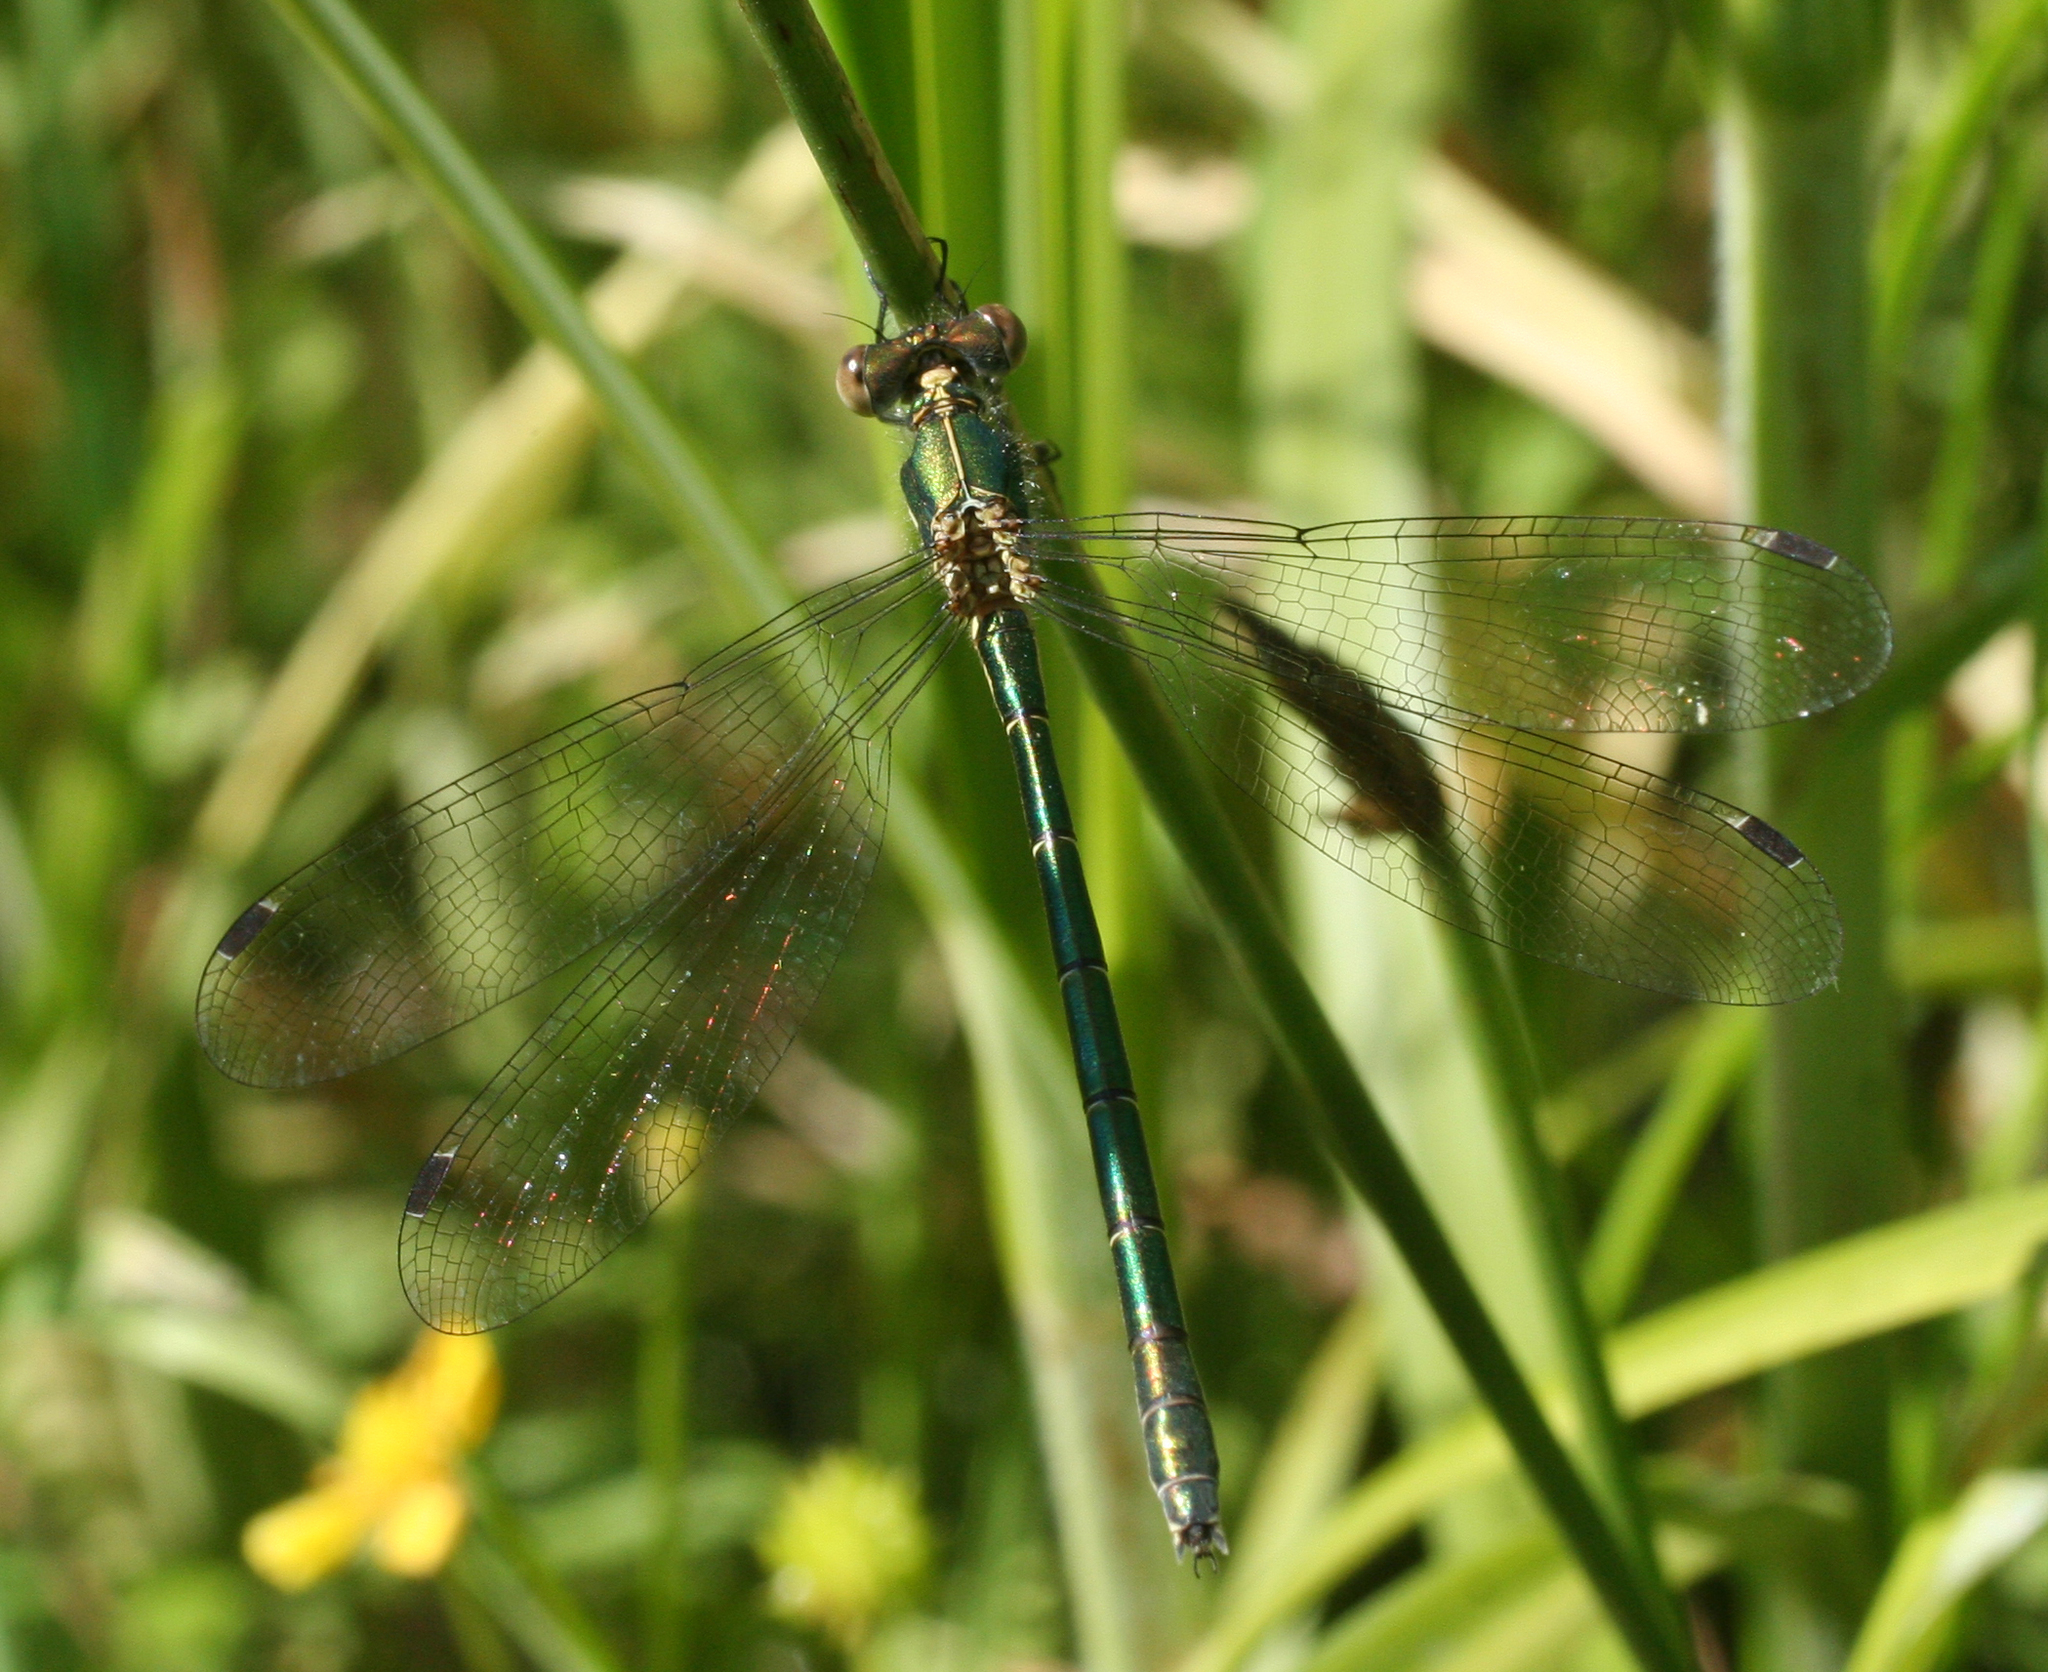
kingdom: Animalia
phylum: Arthropoda
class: Insecta
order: Odonata
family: Lestidae
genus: Lestes
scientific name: Lestes dryas
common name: Scarce emerald damselfly
